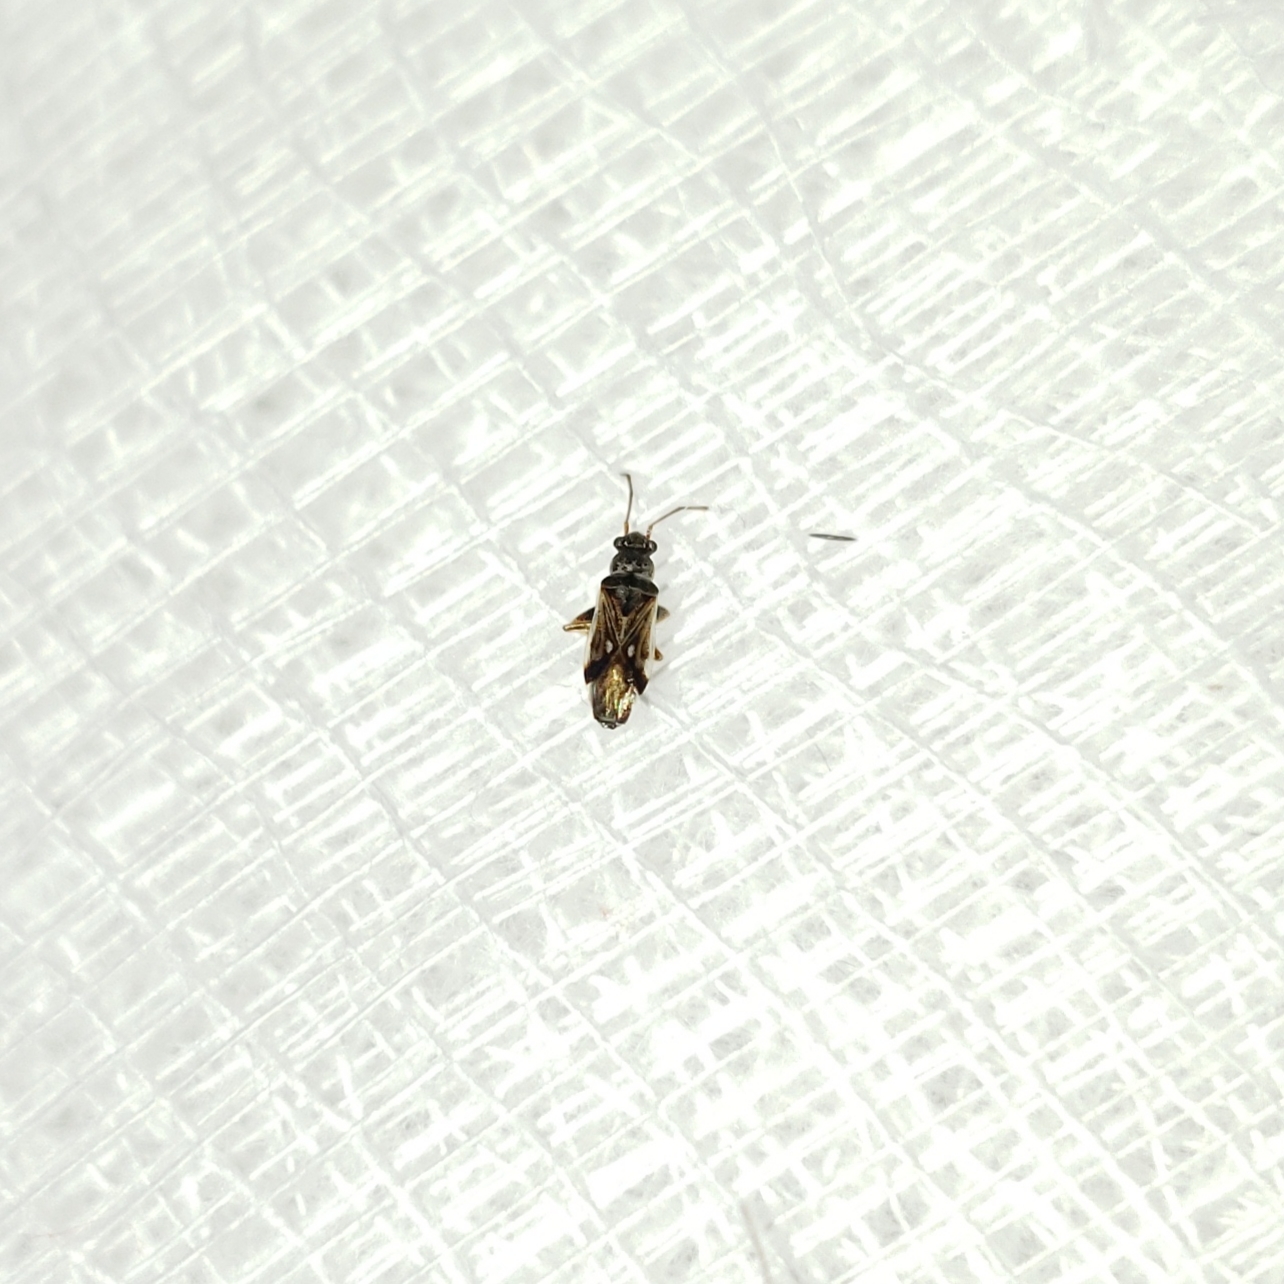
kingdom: Animalia
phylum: Arthropoda
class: Insecta
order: Hemiptera
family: Rhyparochromidae
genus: Pseudopachybrachius
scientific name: Pseudopachybrachius vinctus
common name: Dirt-colored seed bug
